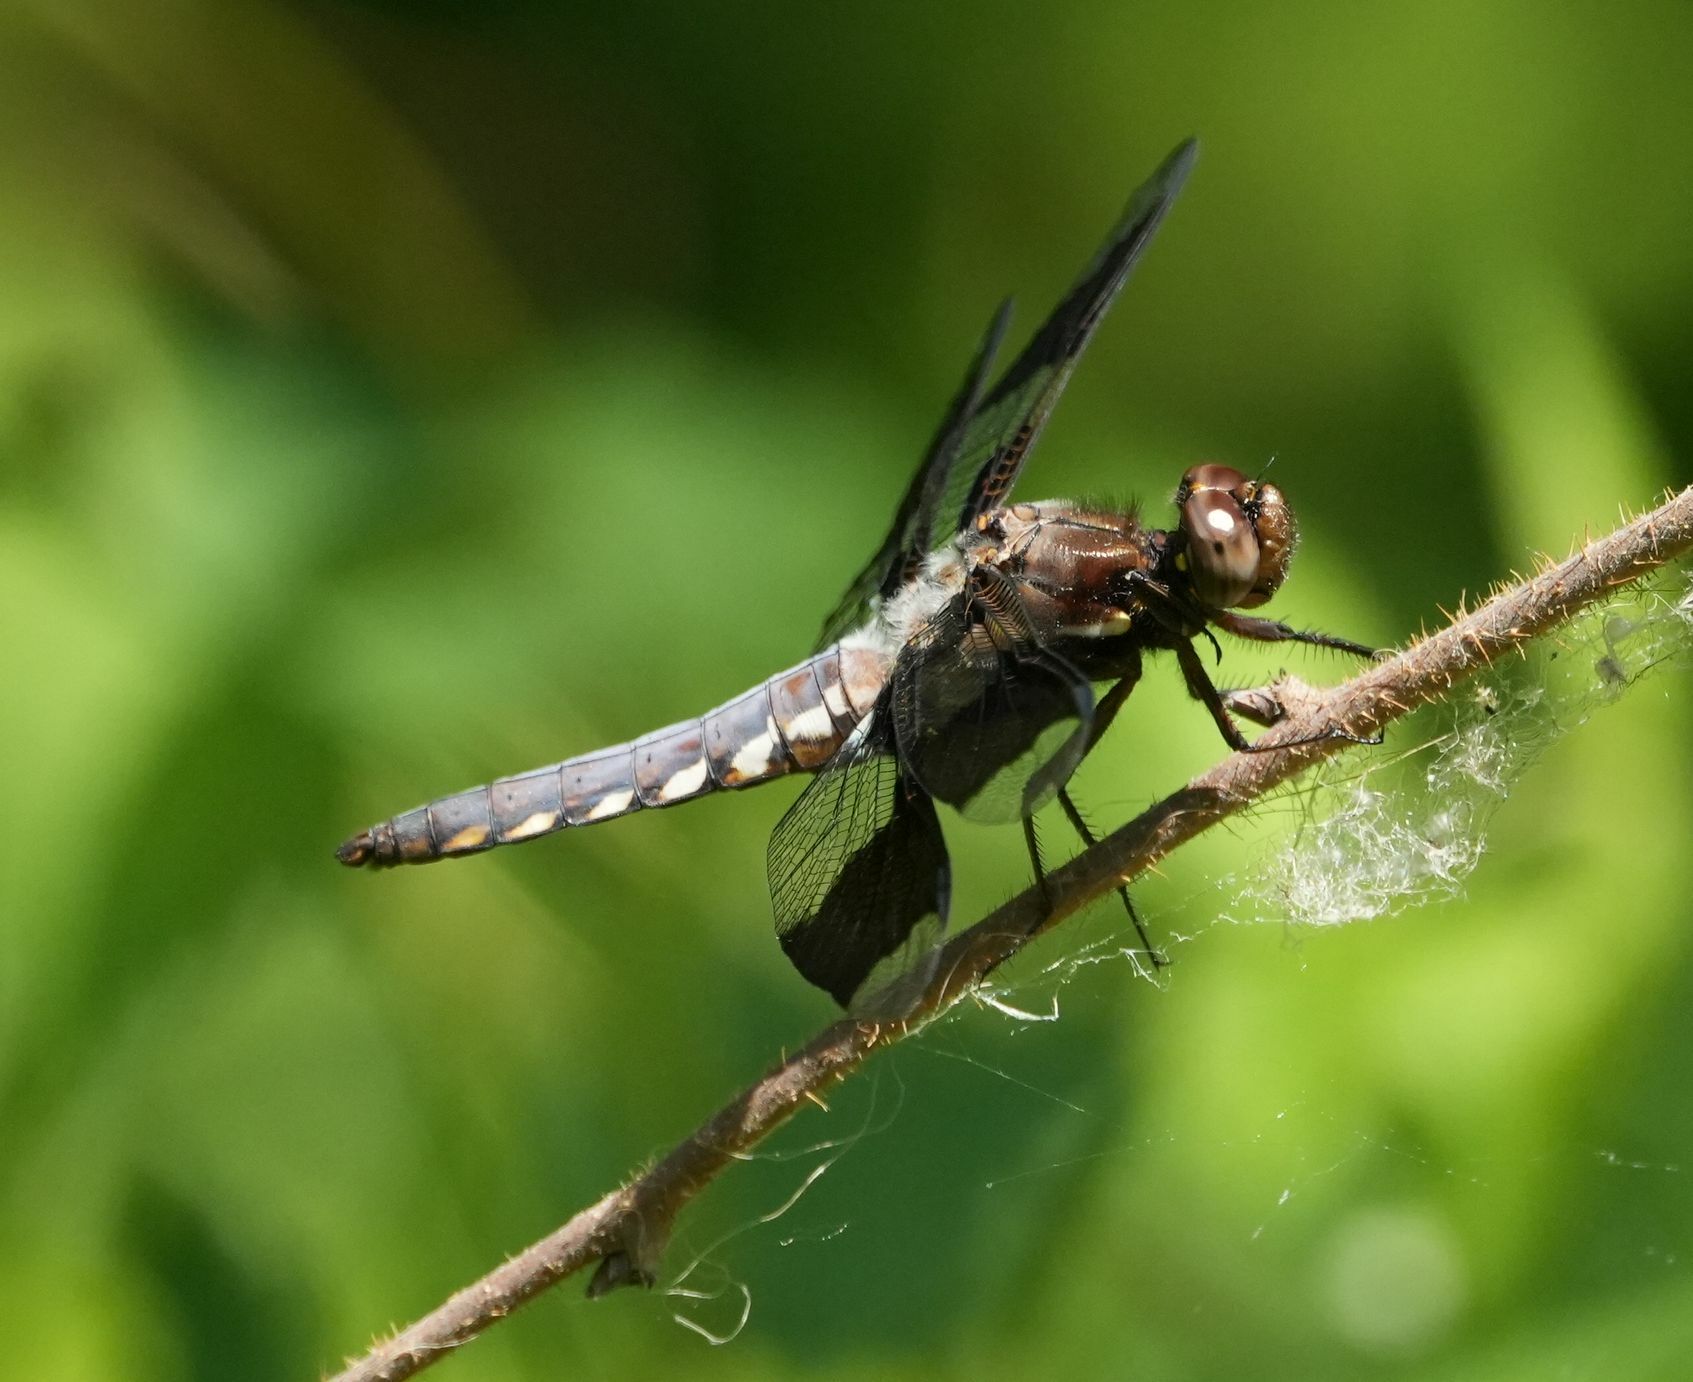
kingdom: Animalia
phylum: Arthropoda
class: Insecta
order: Odonata
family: Libellulidae
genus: Plathemis
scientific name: Plathemis lydia
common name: Common whitetail
